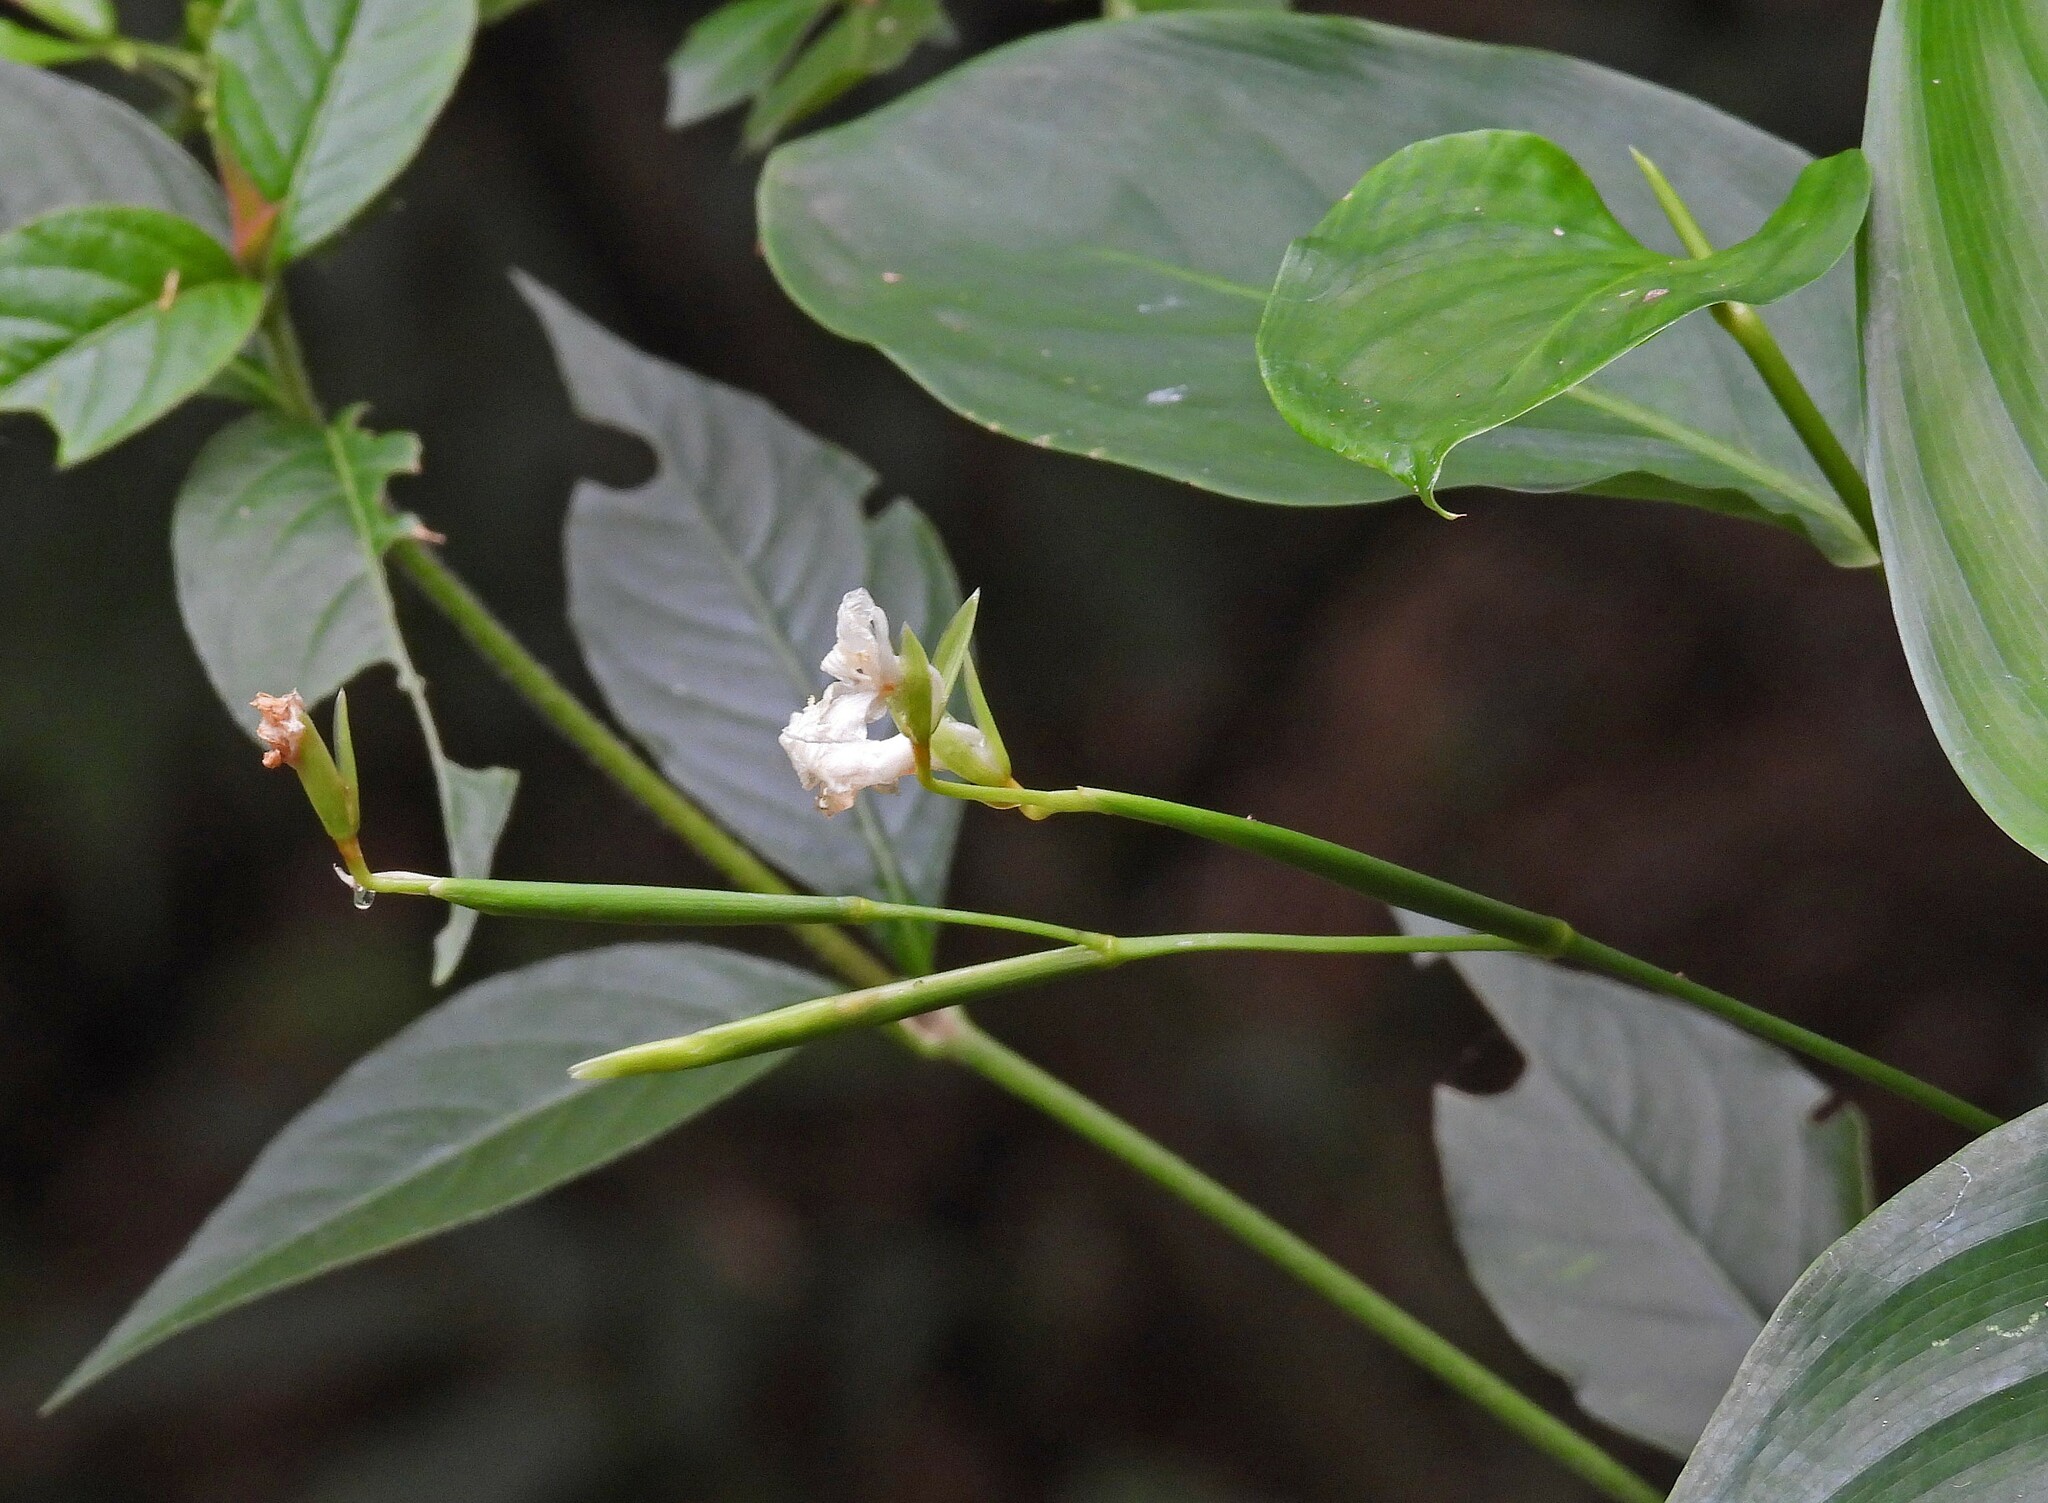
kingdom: Plantae
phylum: Tracheophyta
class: Liliopsida
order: Zingiberales
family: Marantaceae
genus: Maranta
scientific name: Maranta arundinacea
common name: Arrowroot
